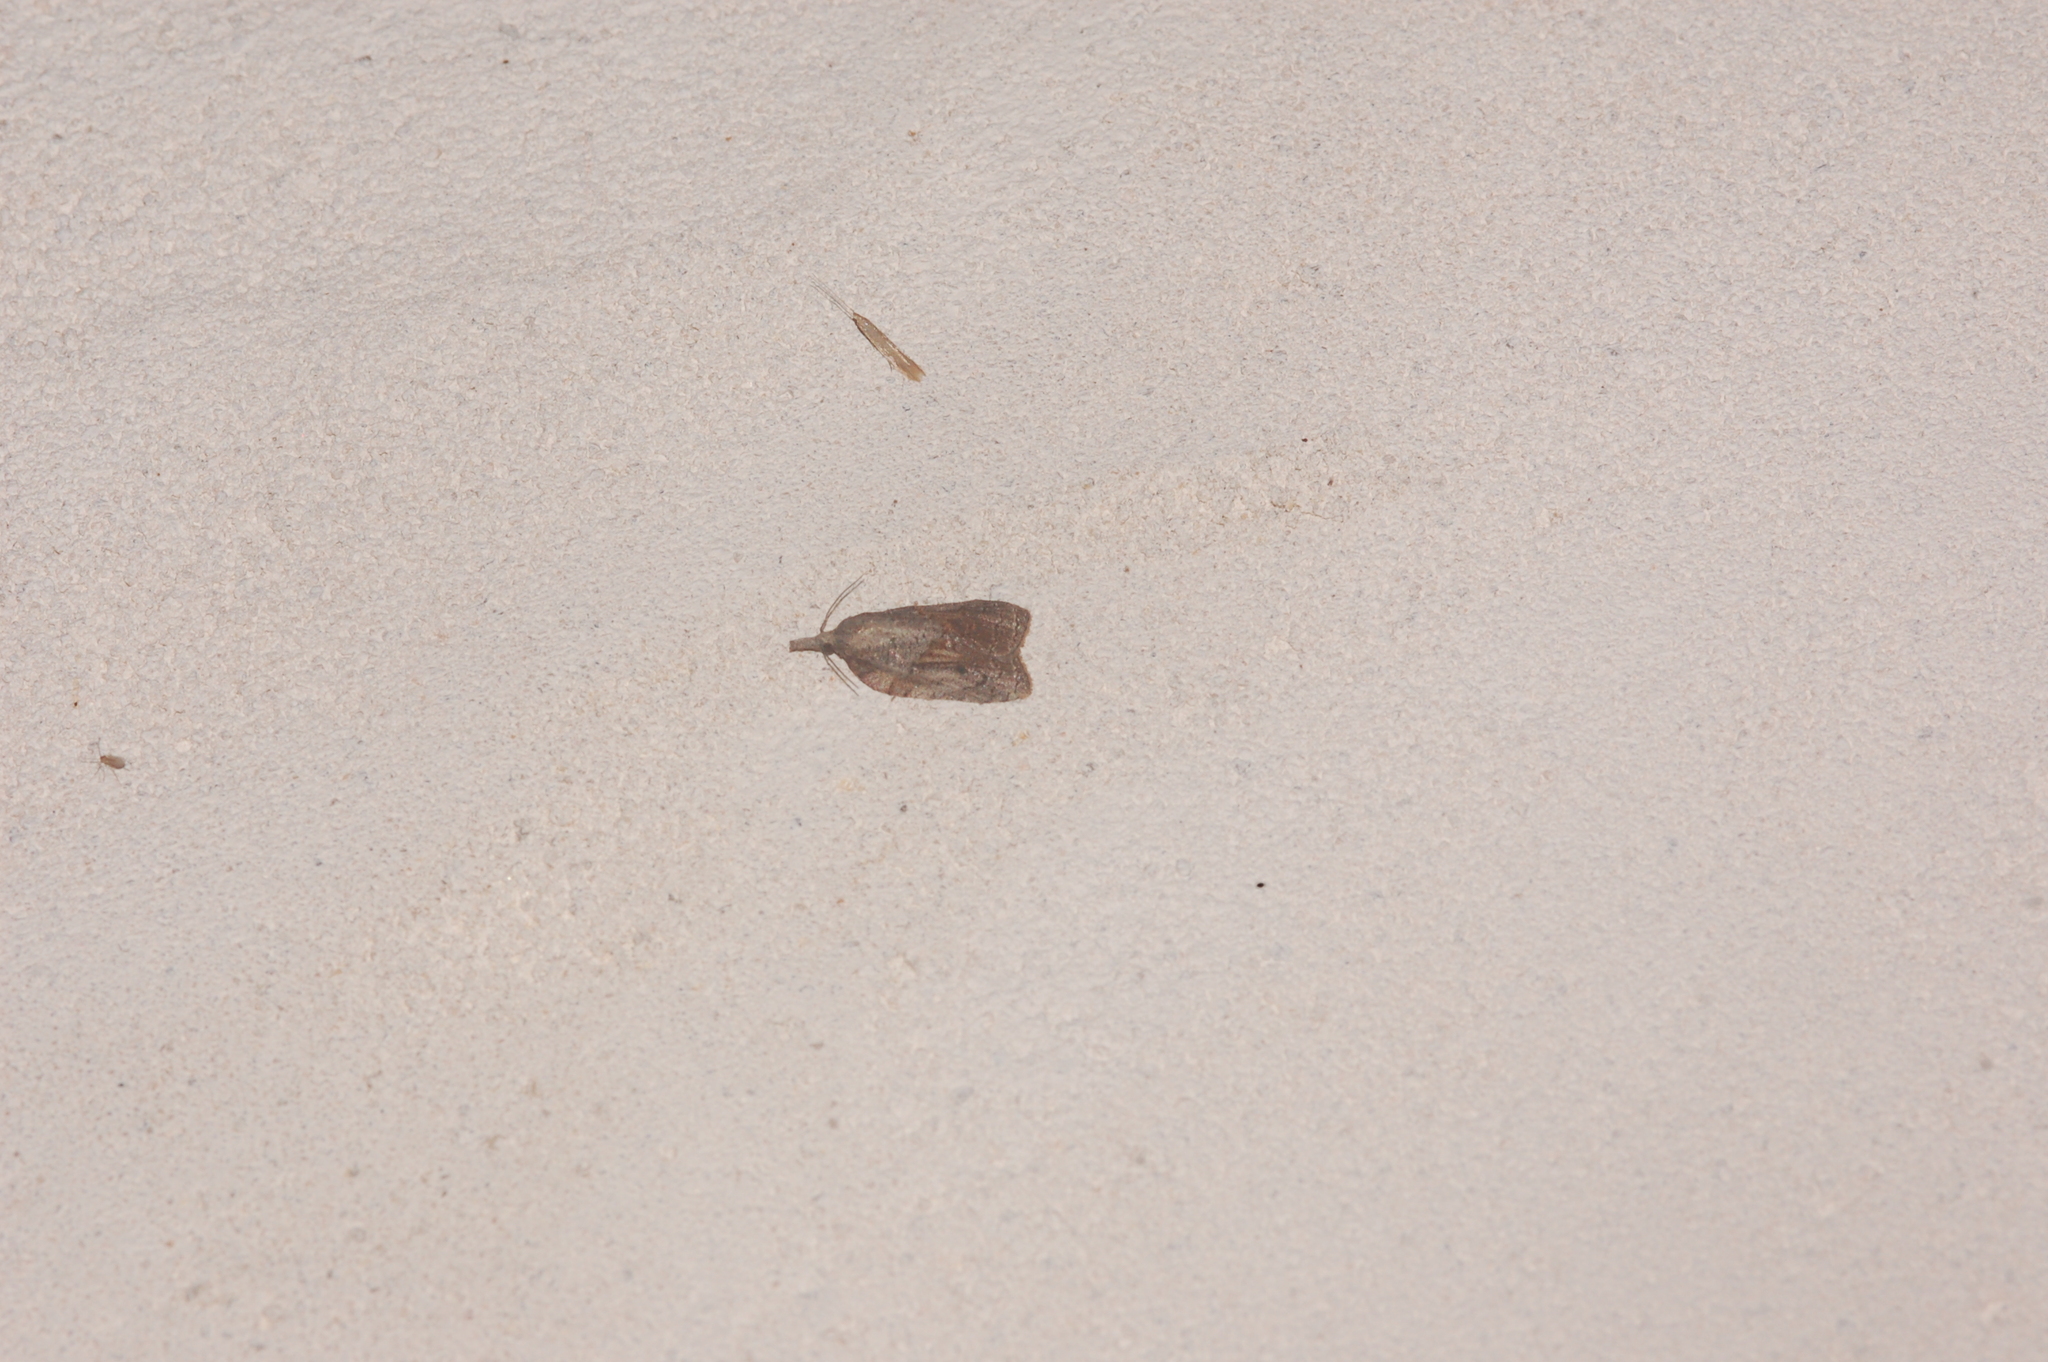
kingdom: Animalia
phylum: Arthropoda
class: Insecta
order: Lepidoptera
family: Tortricidae
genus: Platynota
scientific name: Platynota idaeusalis
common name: Tufted apple bud moth
